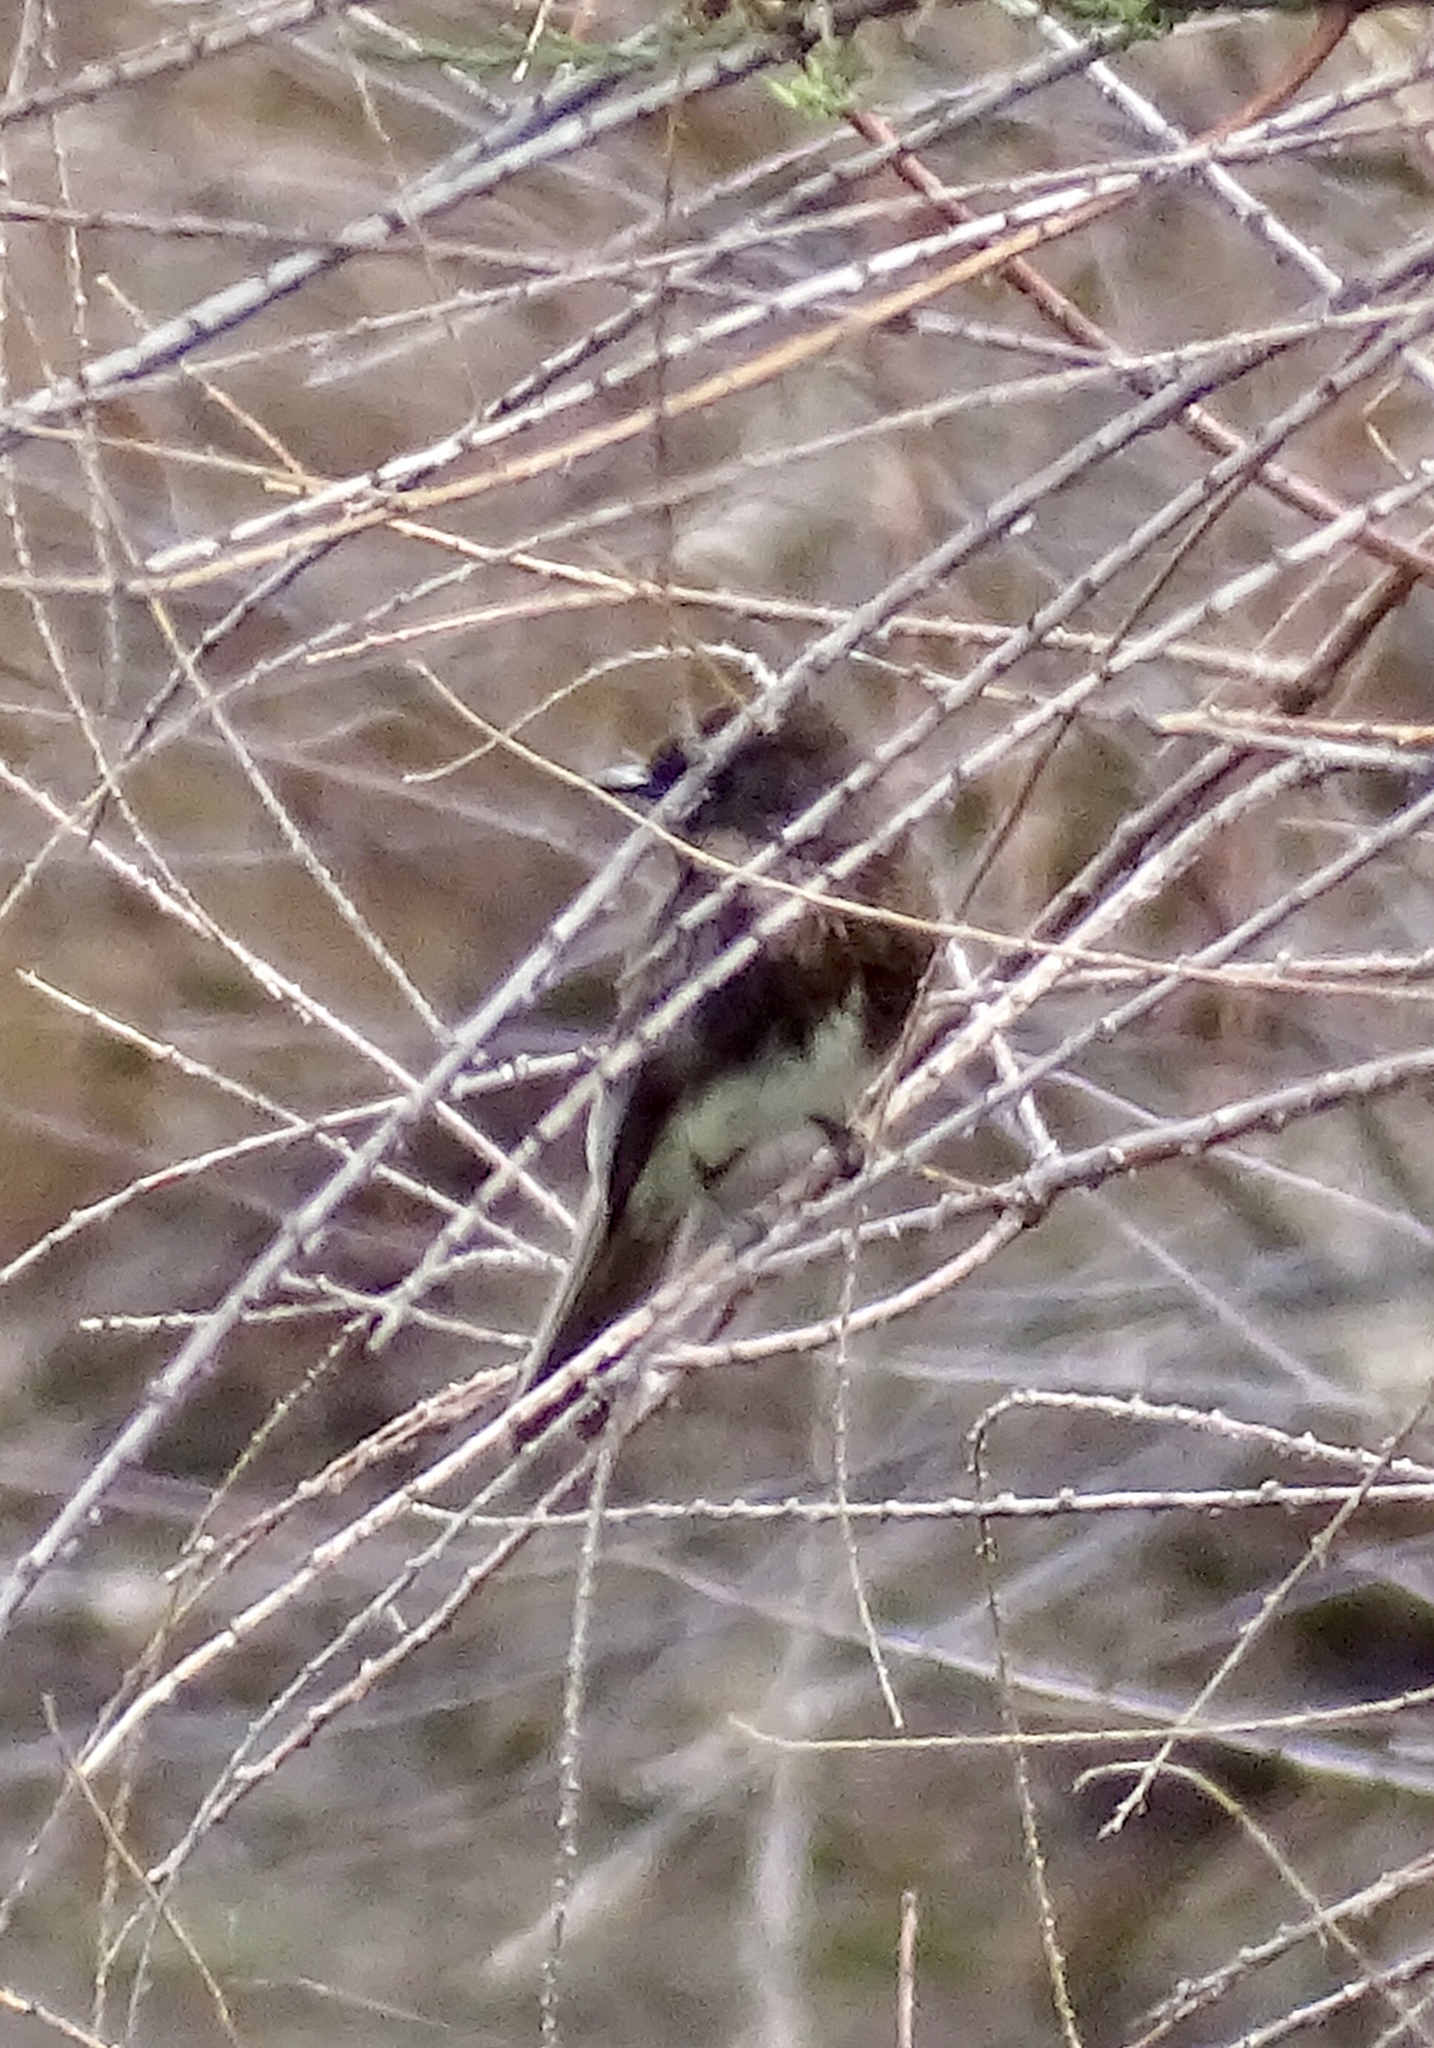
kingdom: Animalia
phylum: Chordata
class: Aves
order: Passeriformes
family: Tyrannidae
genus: Sayornis
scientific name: Sayornis nigricans
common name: Black phoebe
